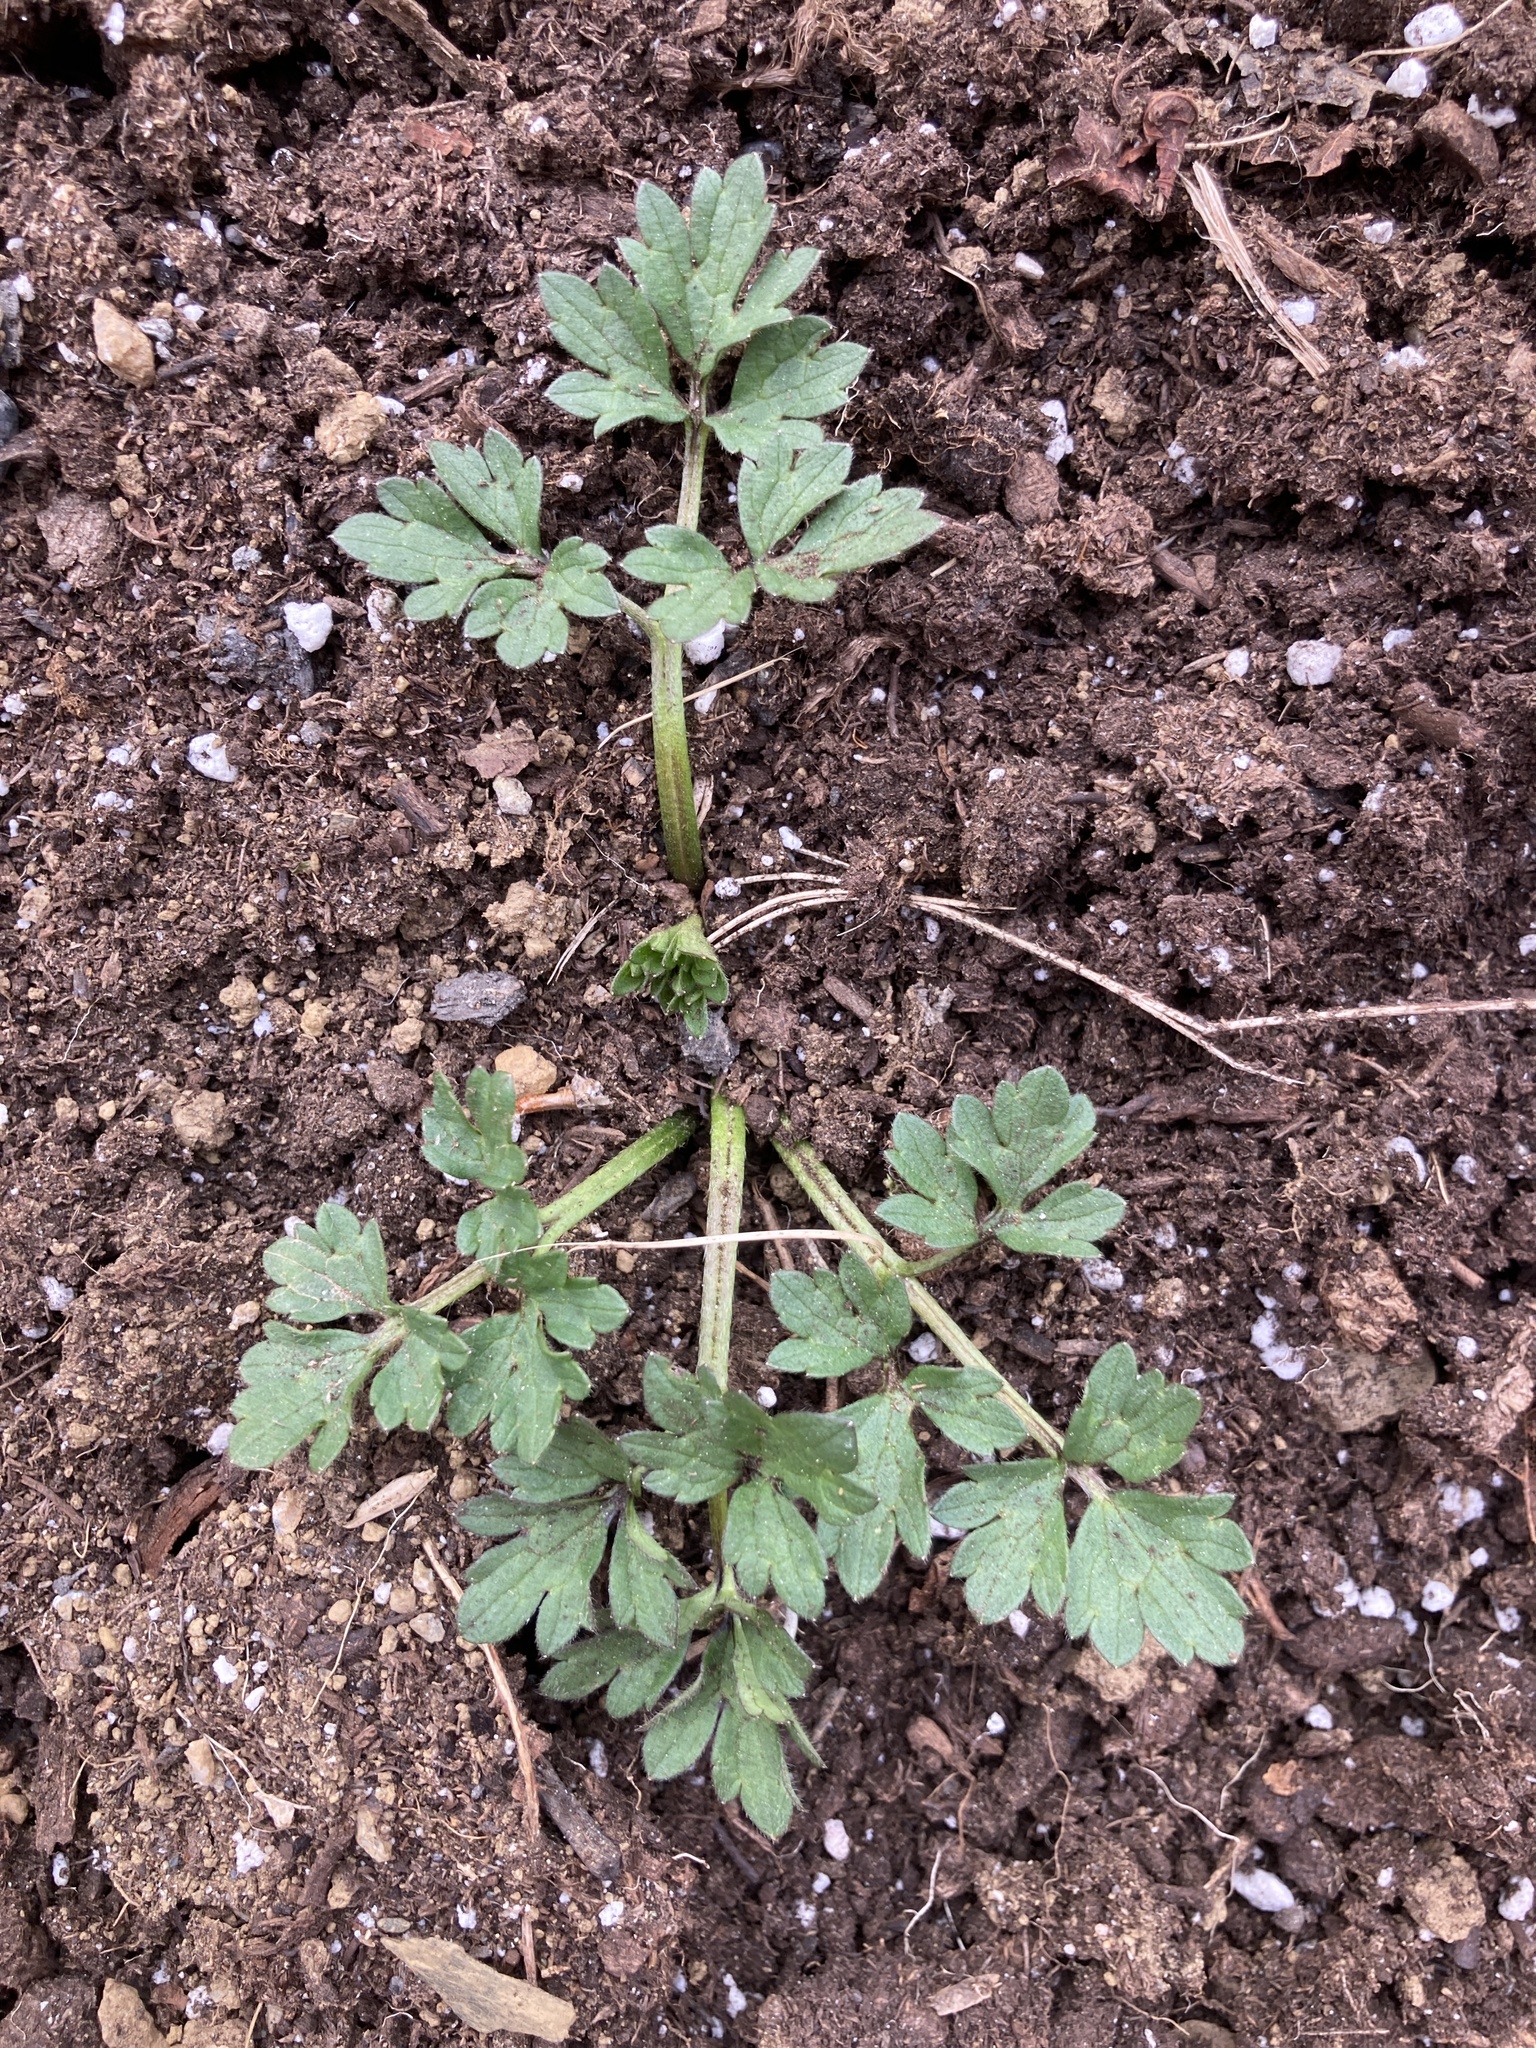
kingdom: Plantae
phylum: Tracheophyta
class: Magnoliopsida
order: Ranunculales
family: Ranunculaceae
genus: Ranunculus
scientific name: Ranunculus repens
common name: Creeping buttercup
